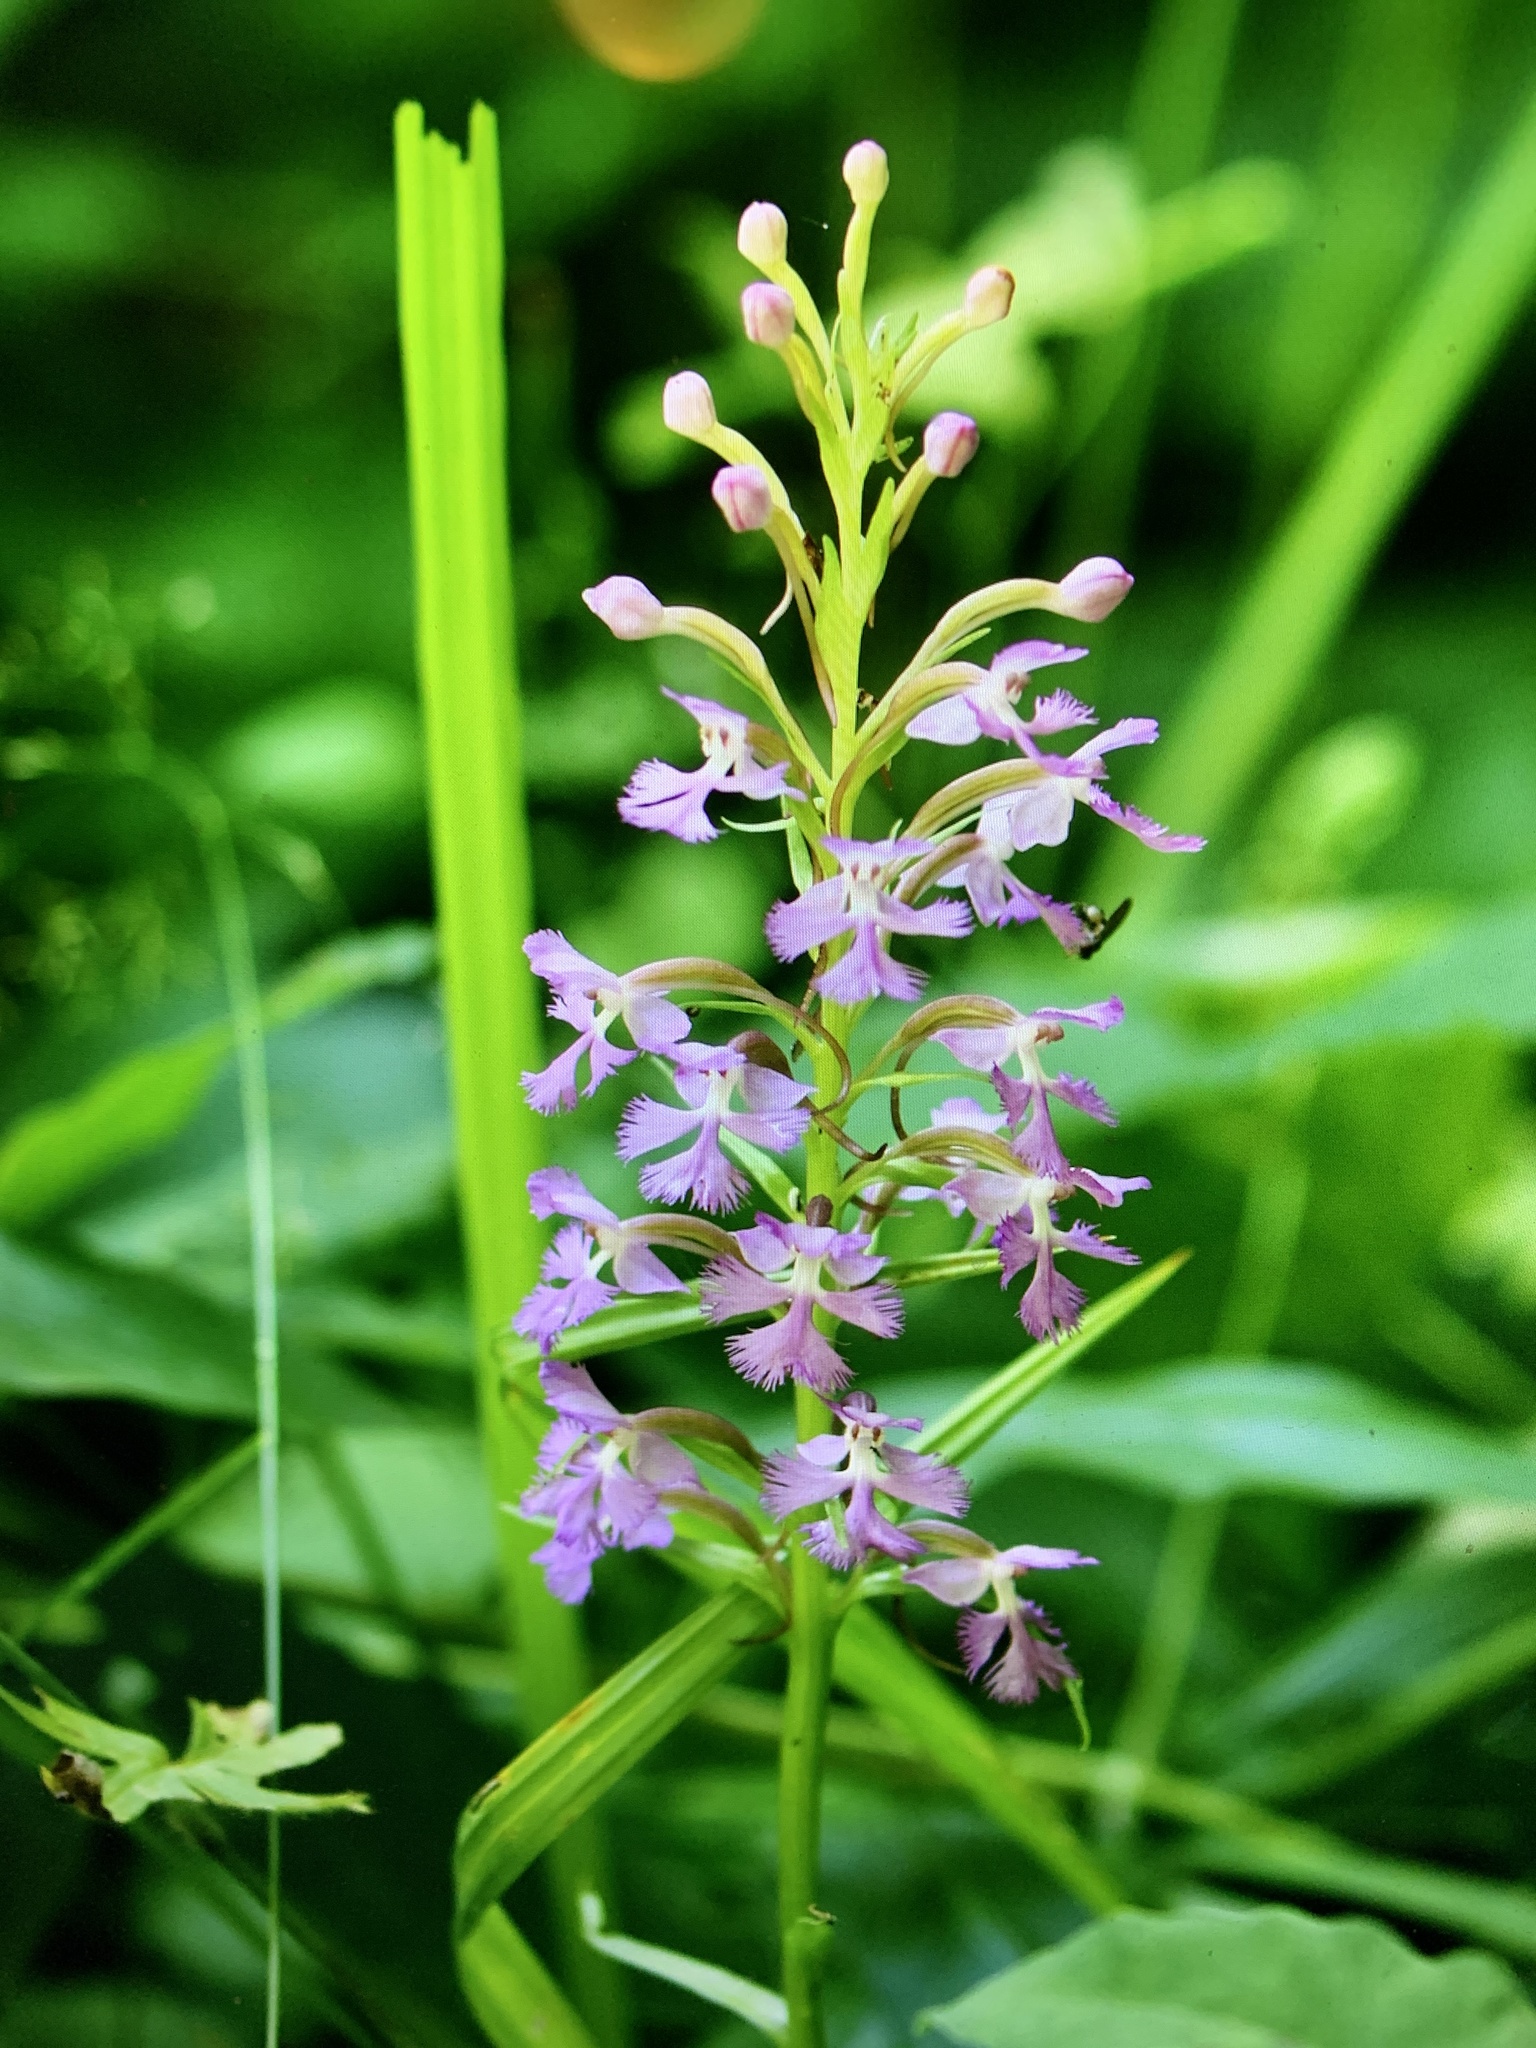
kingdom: Plantae
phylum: Tracheophyta
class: Liliopsida
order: Asparagales
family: Orchidaceae
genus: Platanthera
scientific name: Platanthera psycodes
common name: Lesser purple fringed orchid
